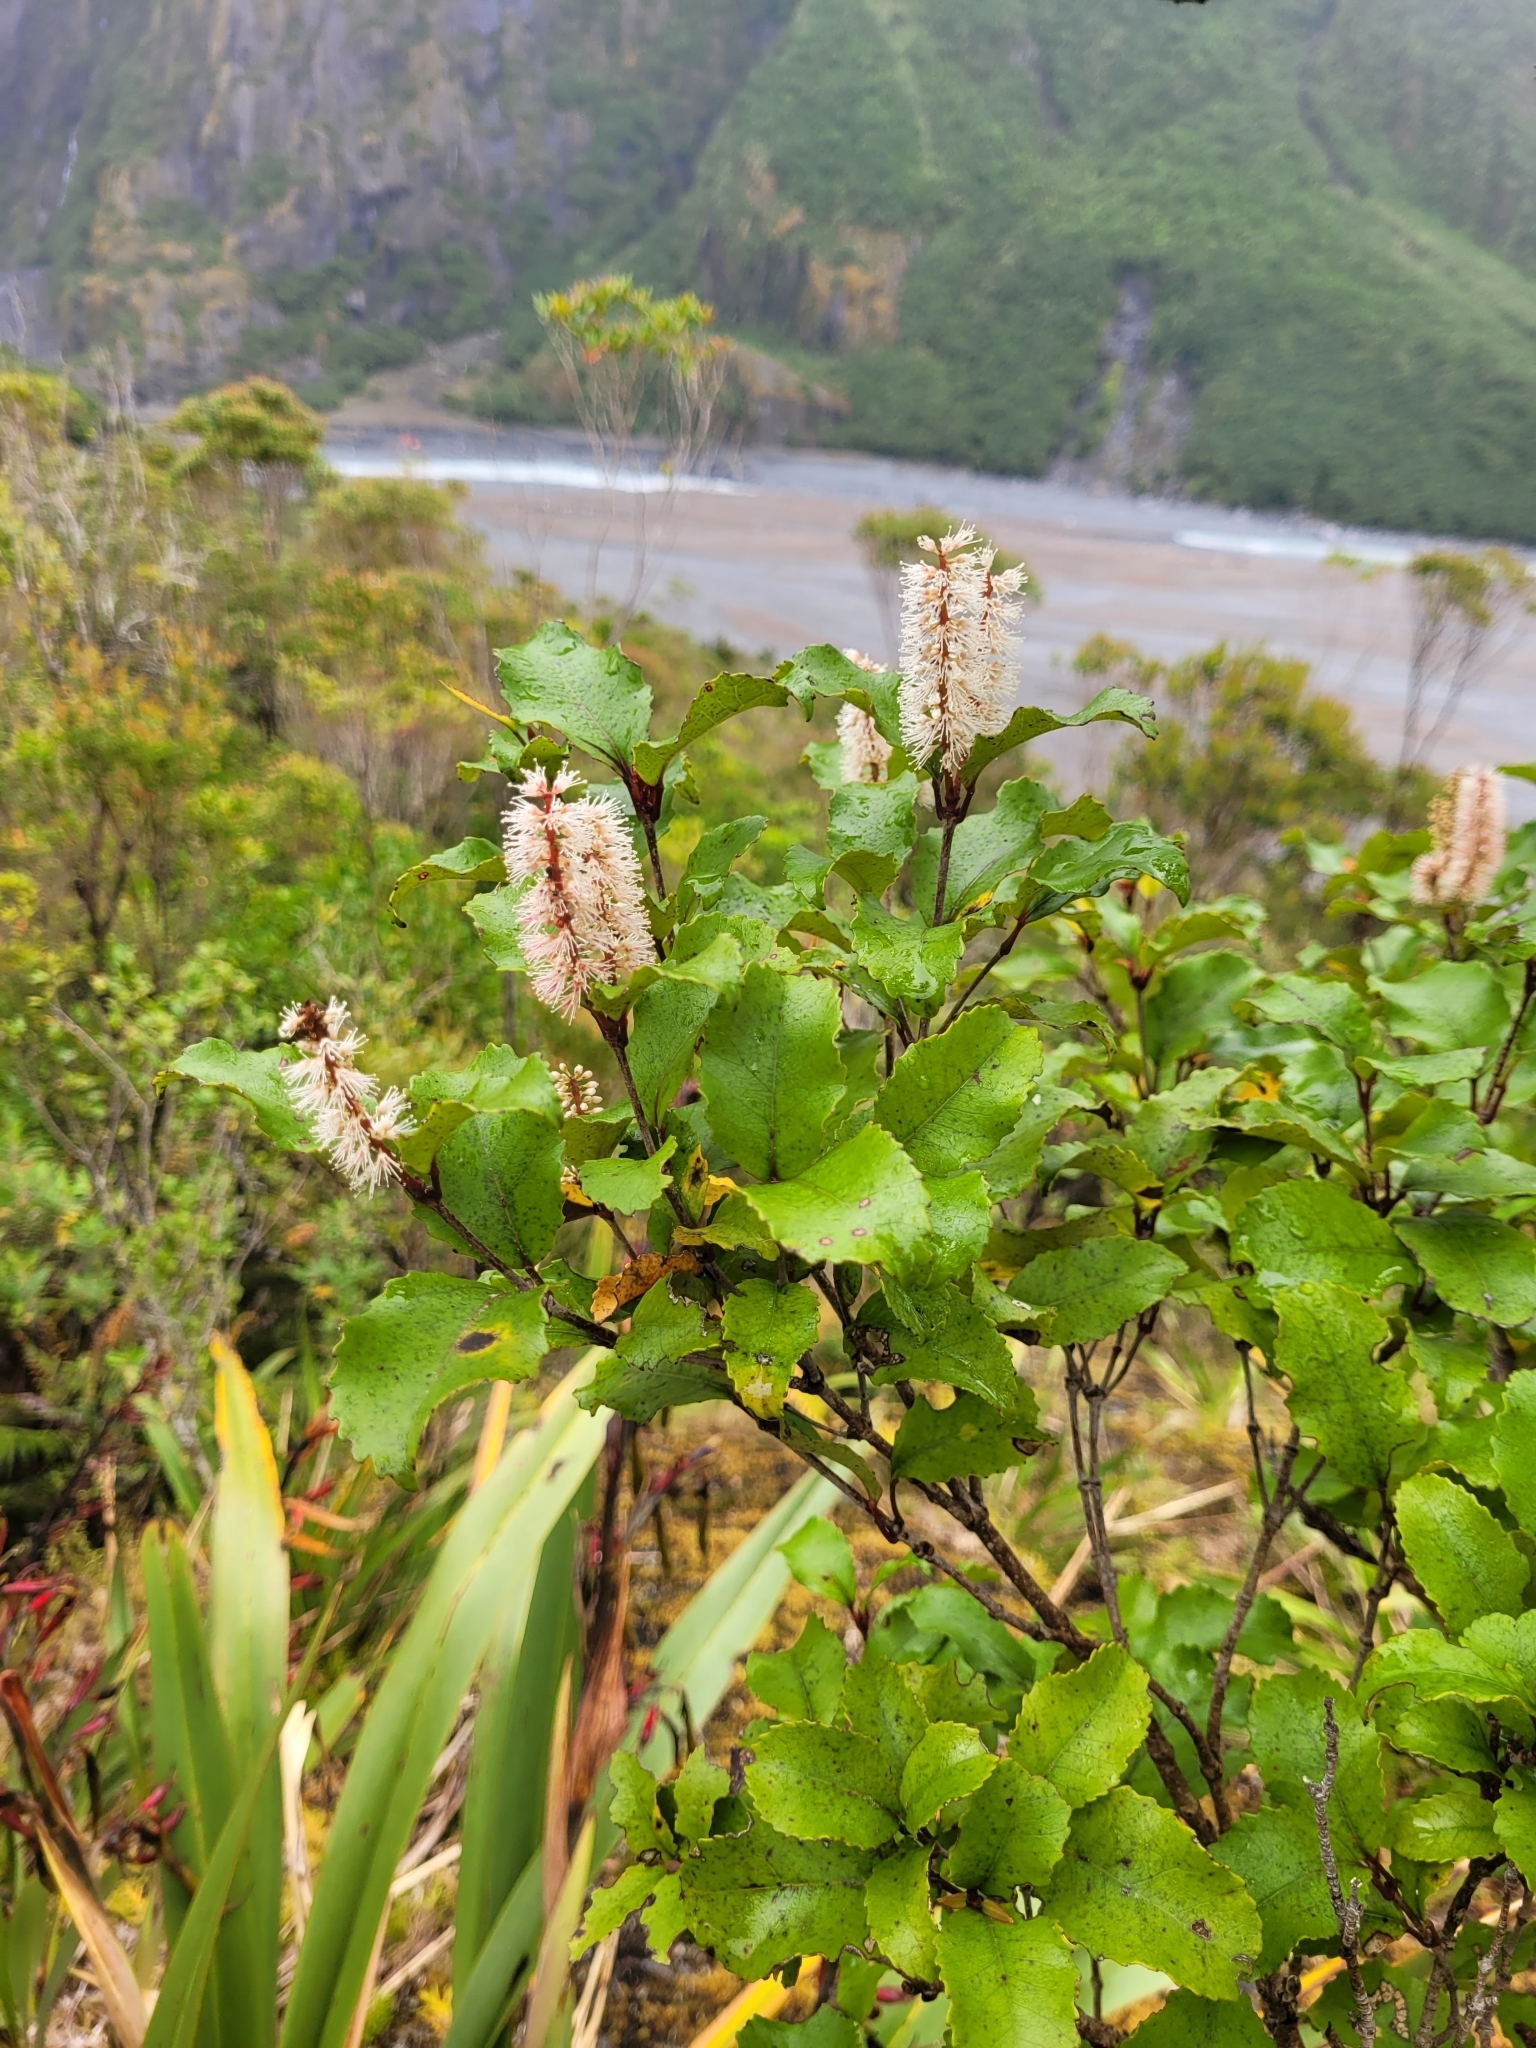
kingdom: Plantae
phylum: Tracheophyta
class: Magnoliopsida
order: Oxalidales
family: Cunoniaceae
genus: Pterophylla
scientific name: Pterophylla racemosa
